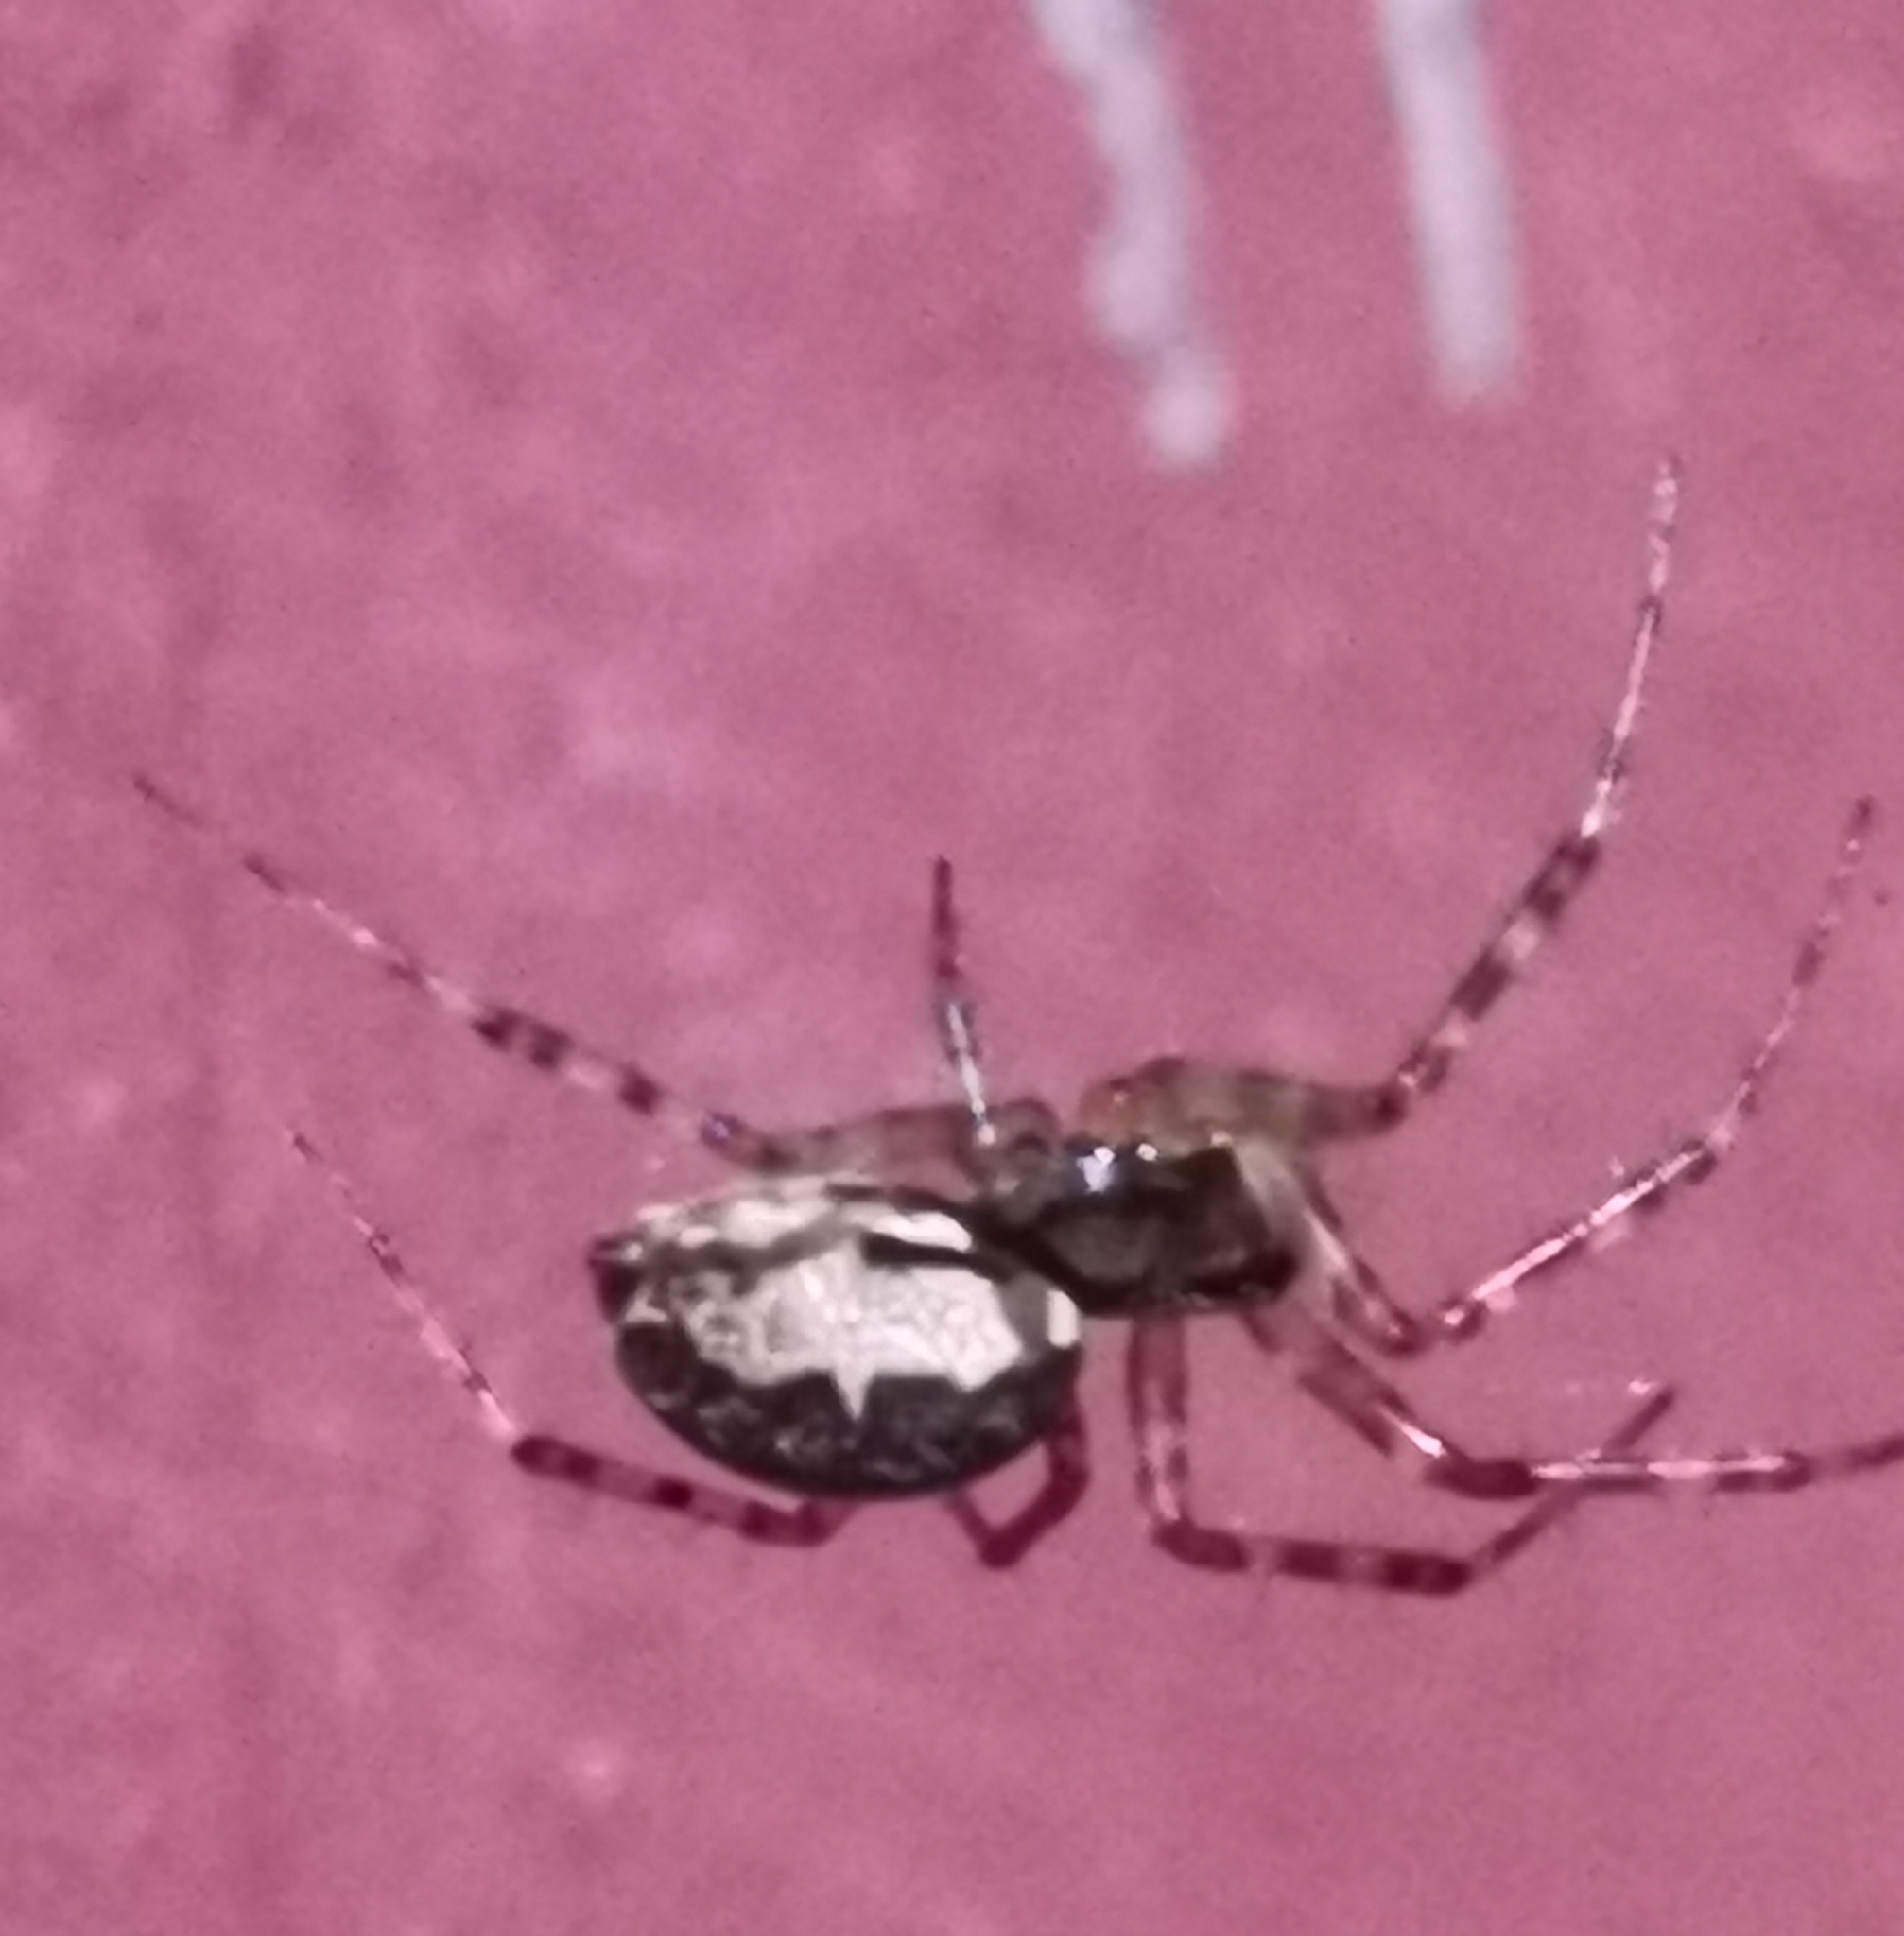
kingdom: Animalia
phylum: Arthropoda
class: Arachnida
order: Araneae
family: Linyphiidae
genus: Neriene
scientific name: Neriene montana
